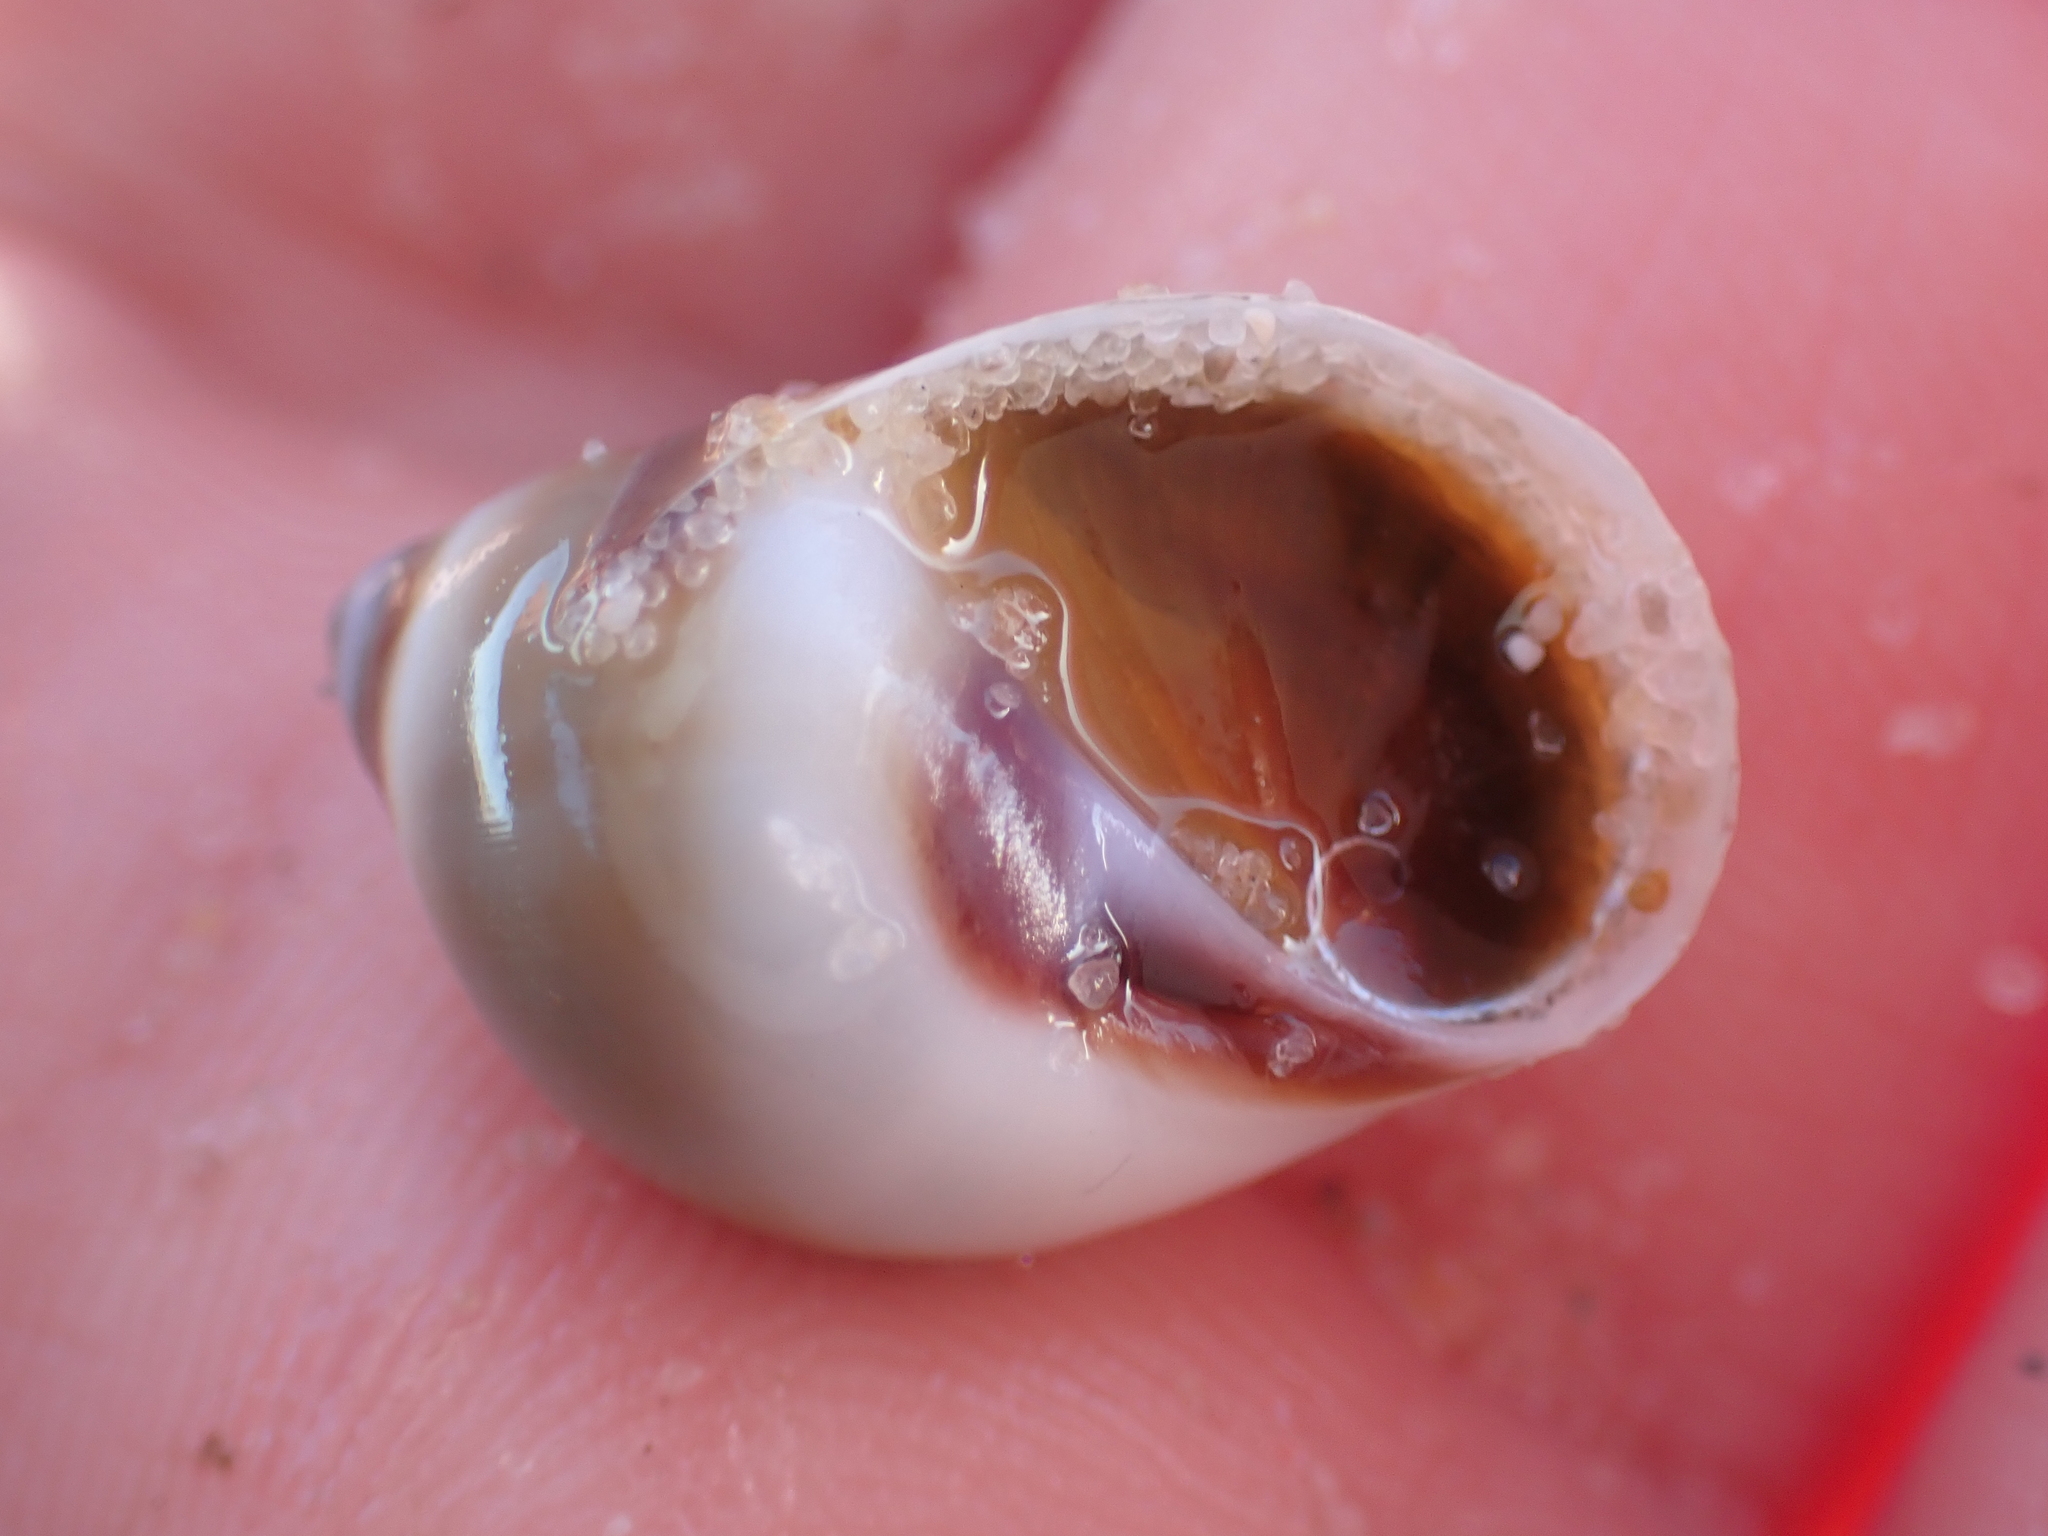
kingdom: Animalia
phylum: Mollusca
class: Gastropoda
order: Littorinimorpha
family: Naticidae
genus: Conuber
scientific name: Conuber conicum
